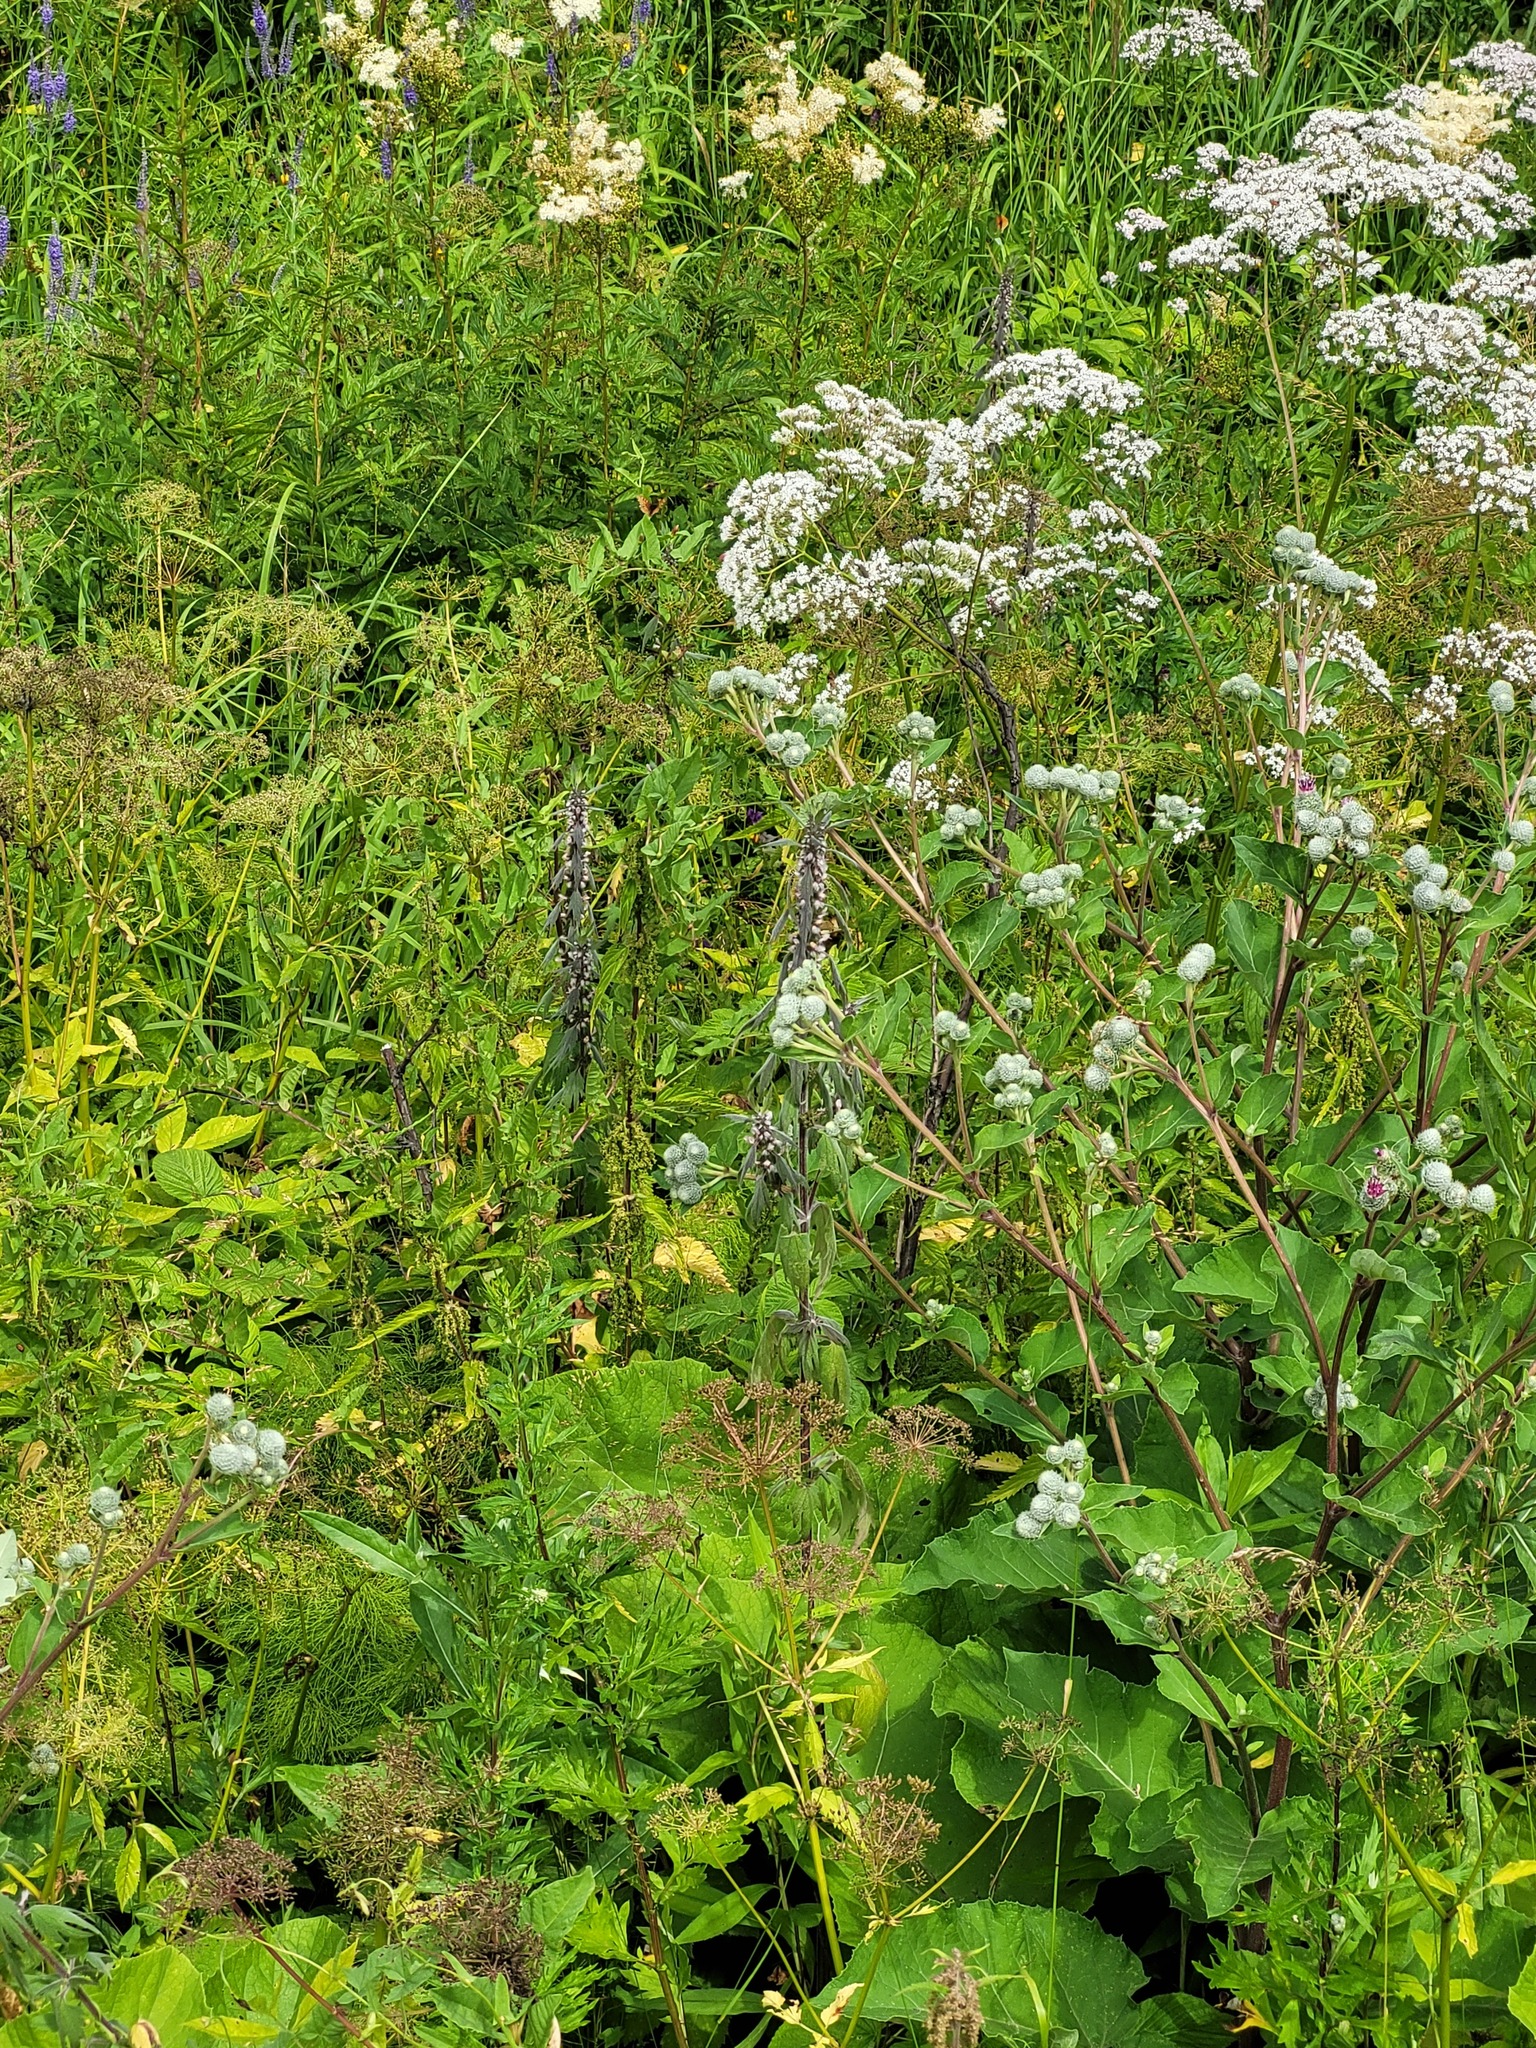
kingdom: Plantae
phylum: Tracheophyta
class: Magnoliopsida
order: Asterales
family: Asteraceae
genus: Arctium
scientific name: Arctium tomentosum
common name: Woolly burdock
